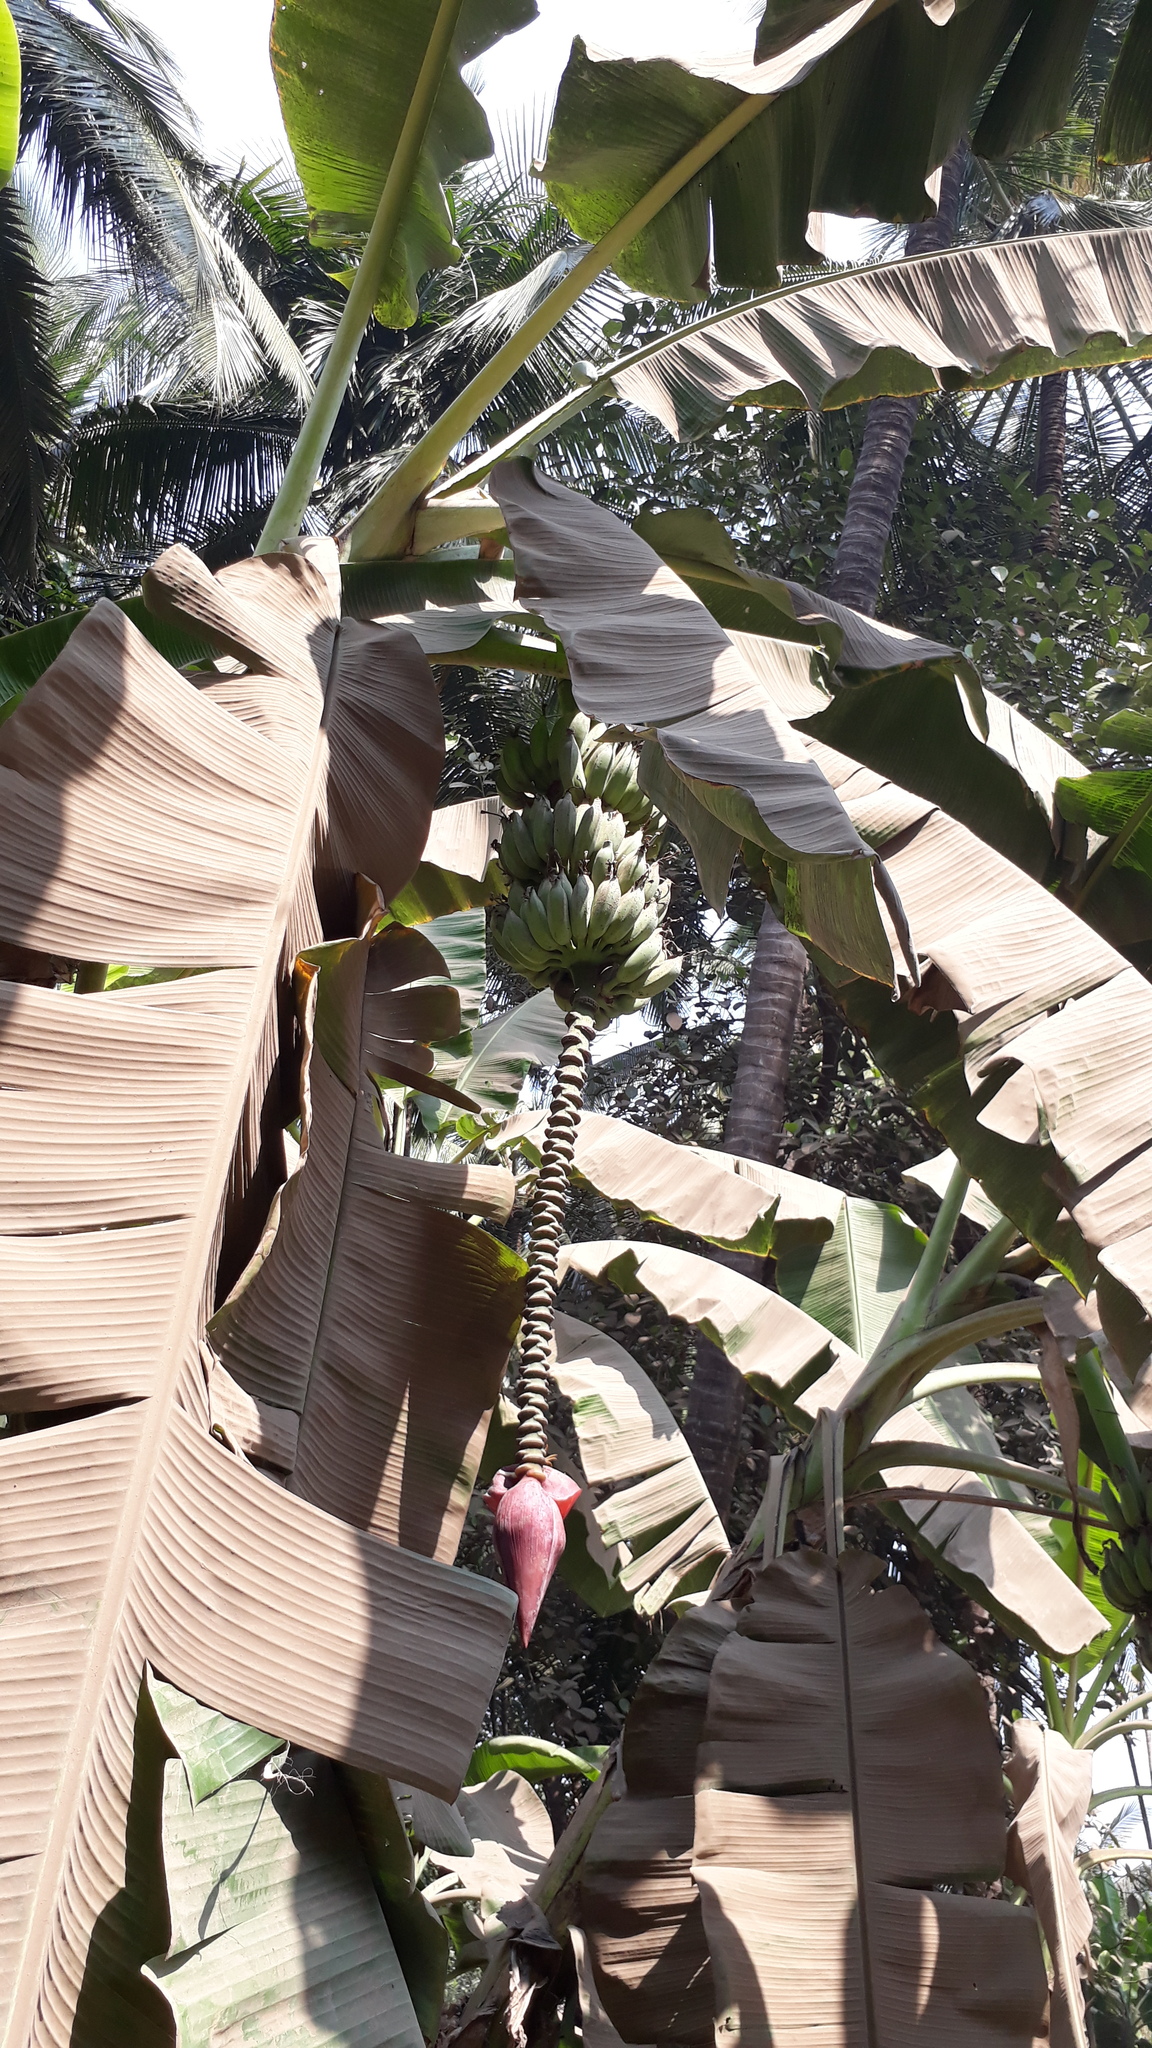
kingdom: Plantae
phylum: Tracheophyta
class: Liliopsida
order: Zingiberales
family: Musaceae
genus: Musa
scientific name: Musa paradisiaca
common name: French plantain
